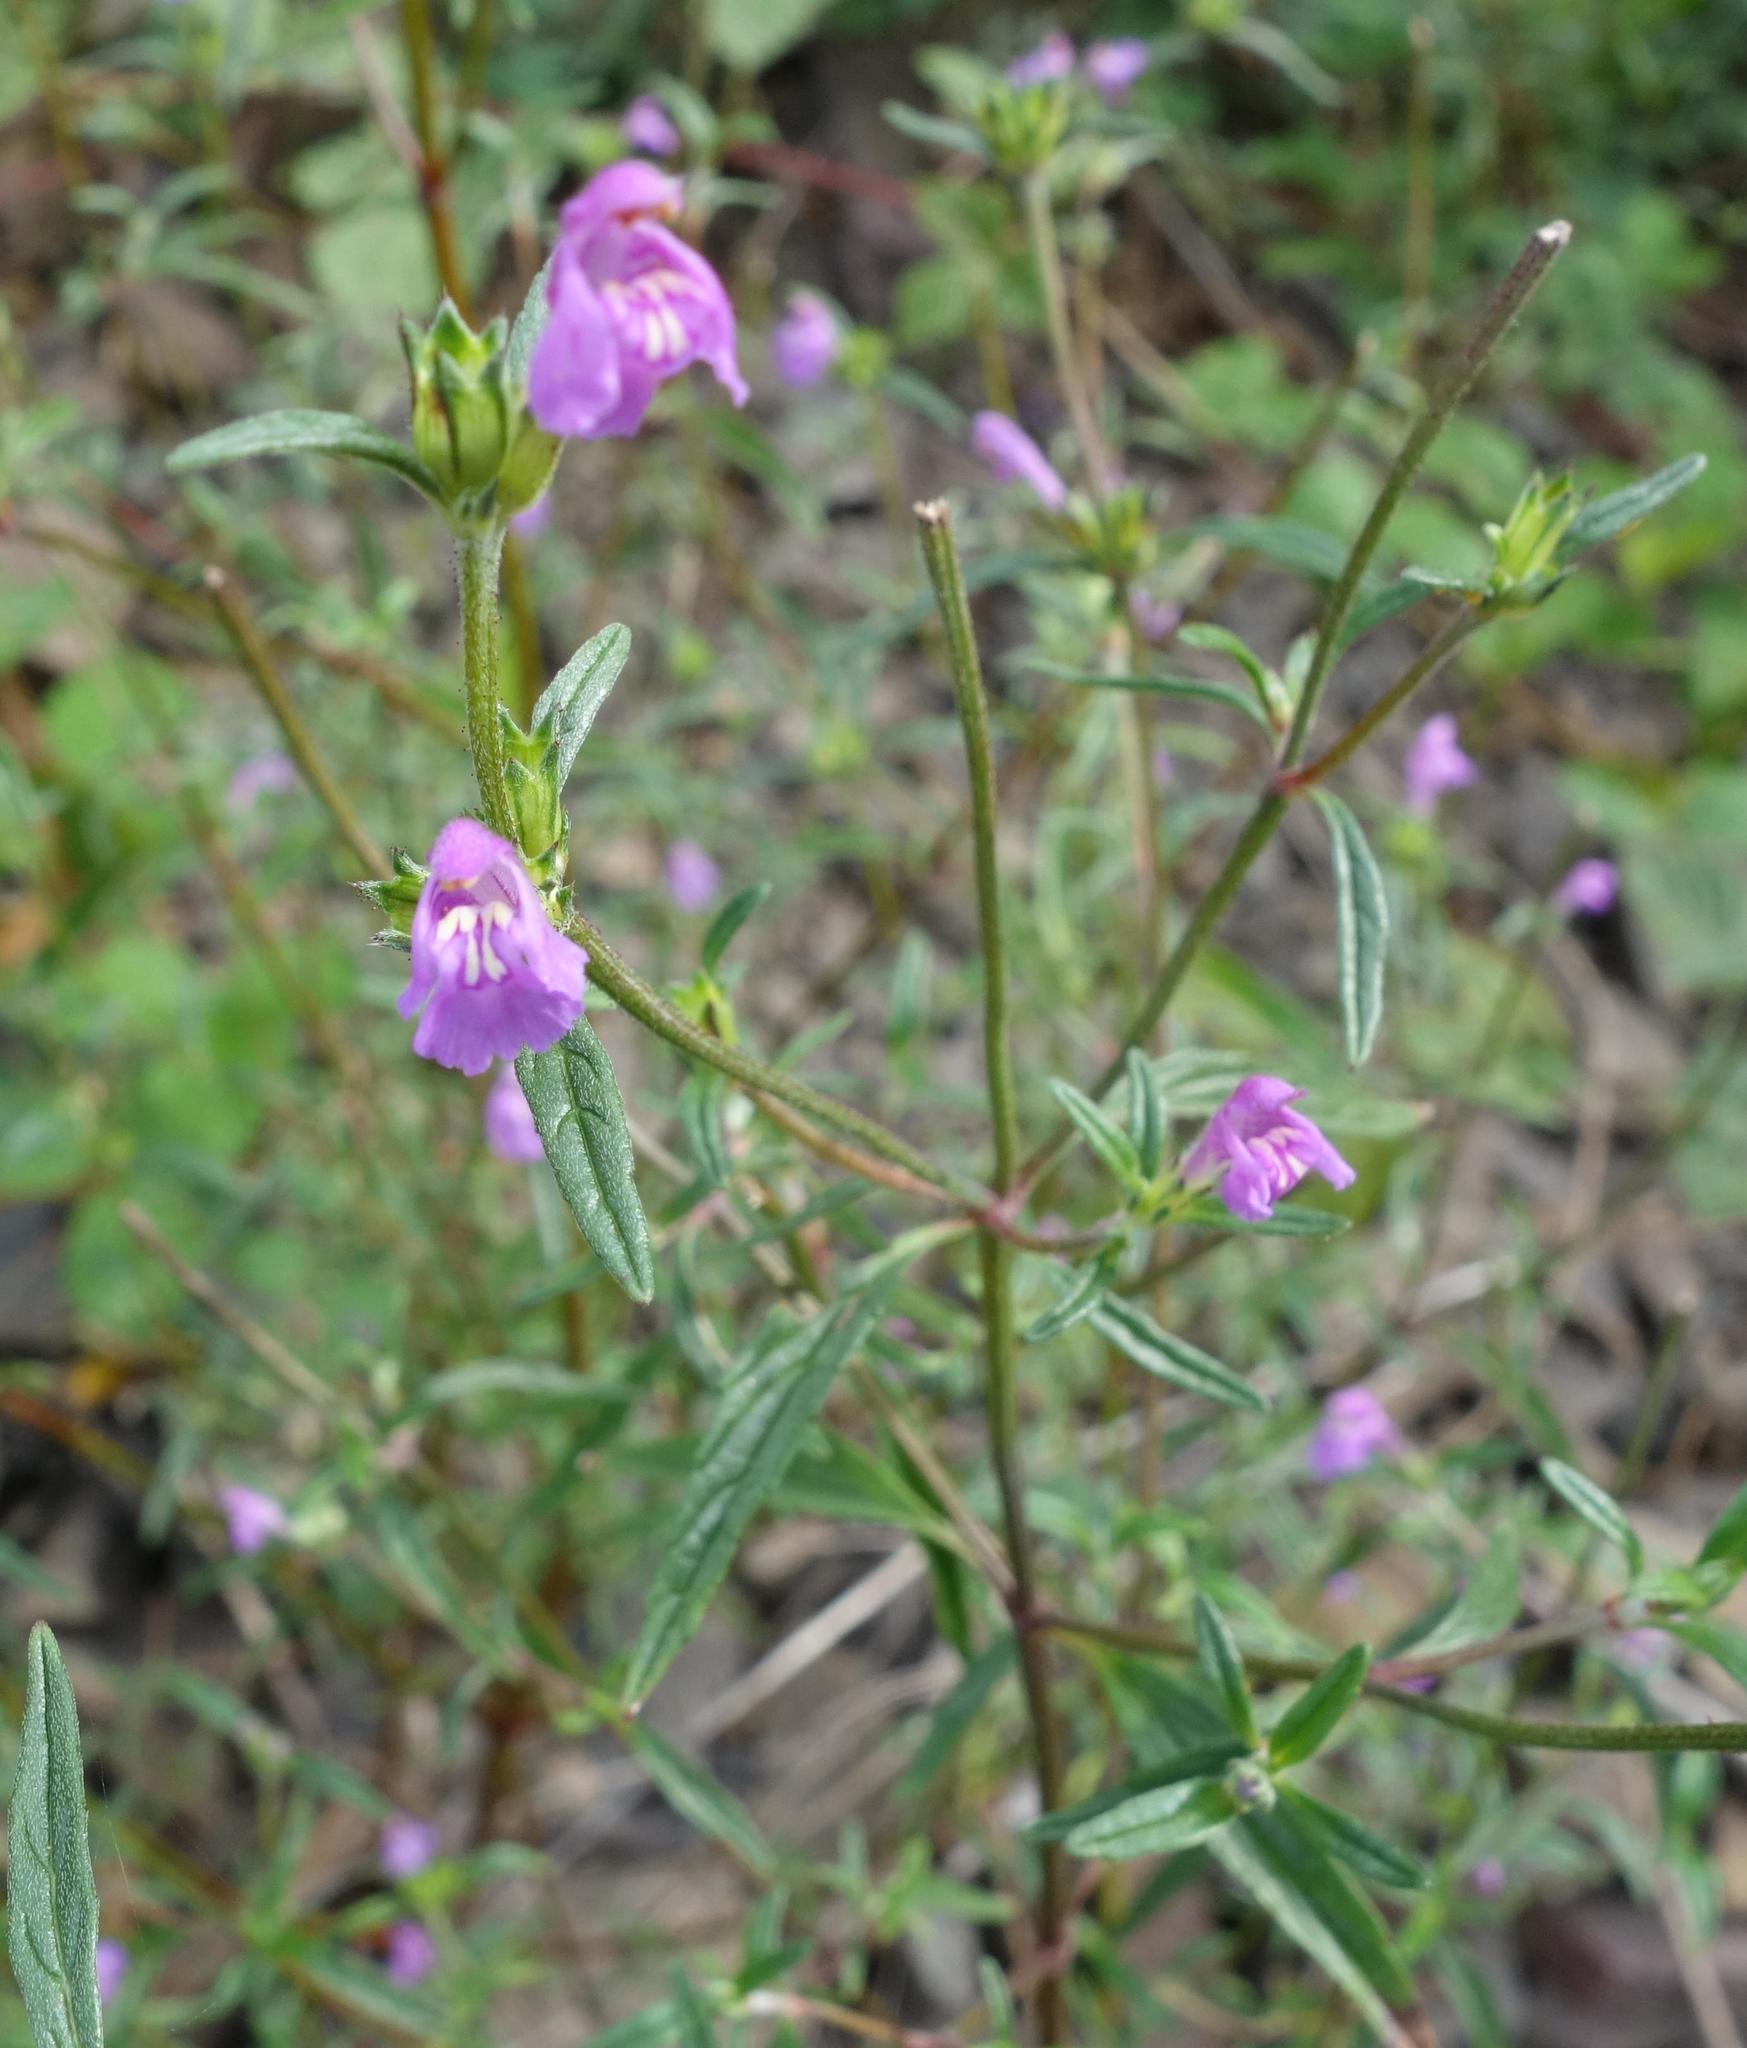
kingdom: Plantae
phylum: Tracheophyta
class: Magnoliopsida
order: Lamiales
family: Lamiaceae
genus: Galeopsis
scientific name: Galeopsis angustifolia
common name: Red hemp-nettle
